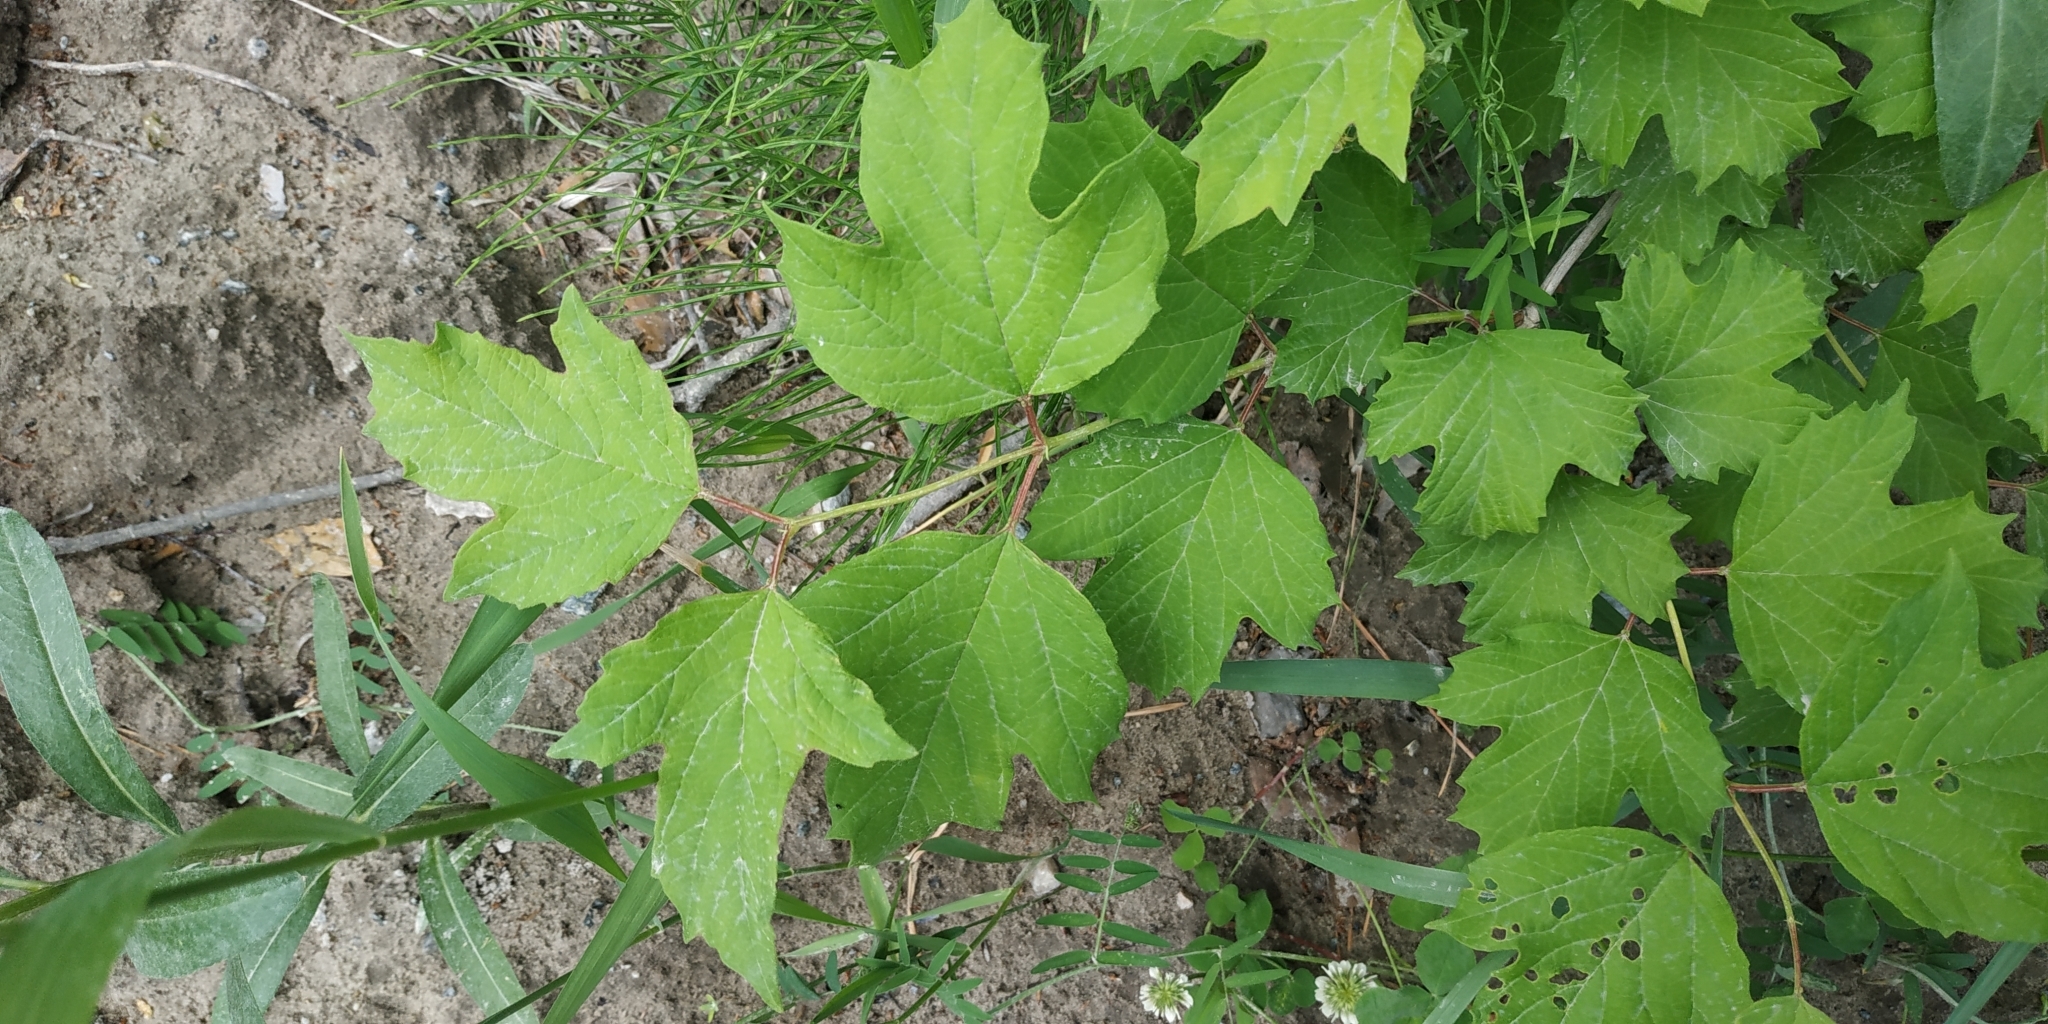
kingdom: Plantae
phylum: Tracheophyta
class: Magnoliopsida
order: Dipsacales
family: Viburnaceae
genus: Viburnum
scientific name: Viburnum opulus
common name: Guelder-rose
